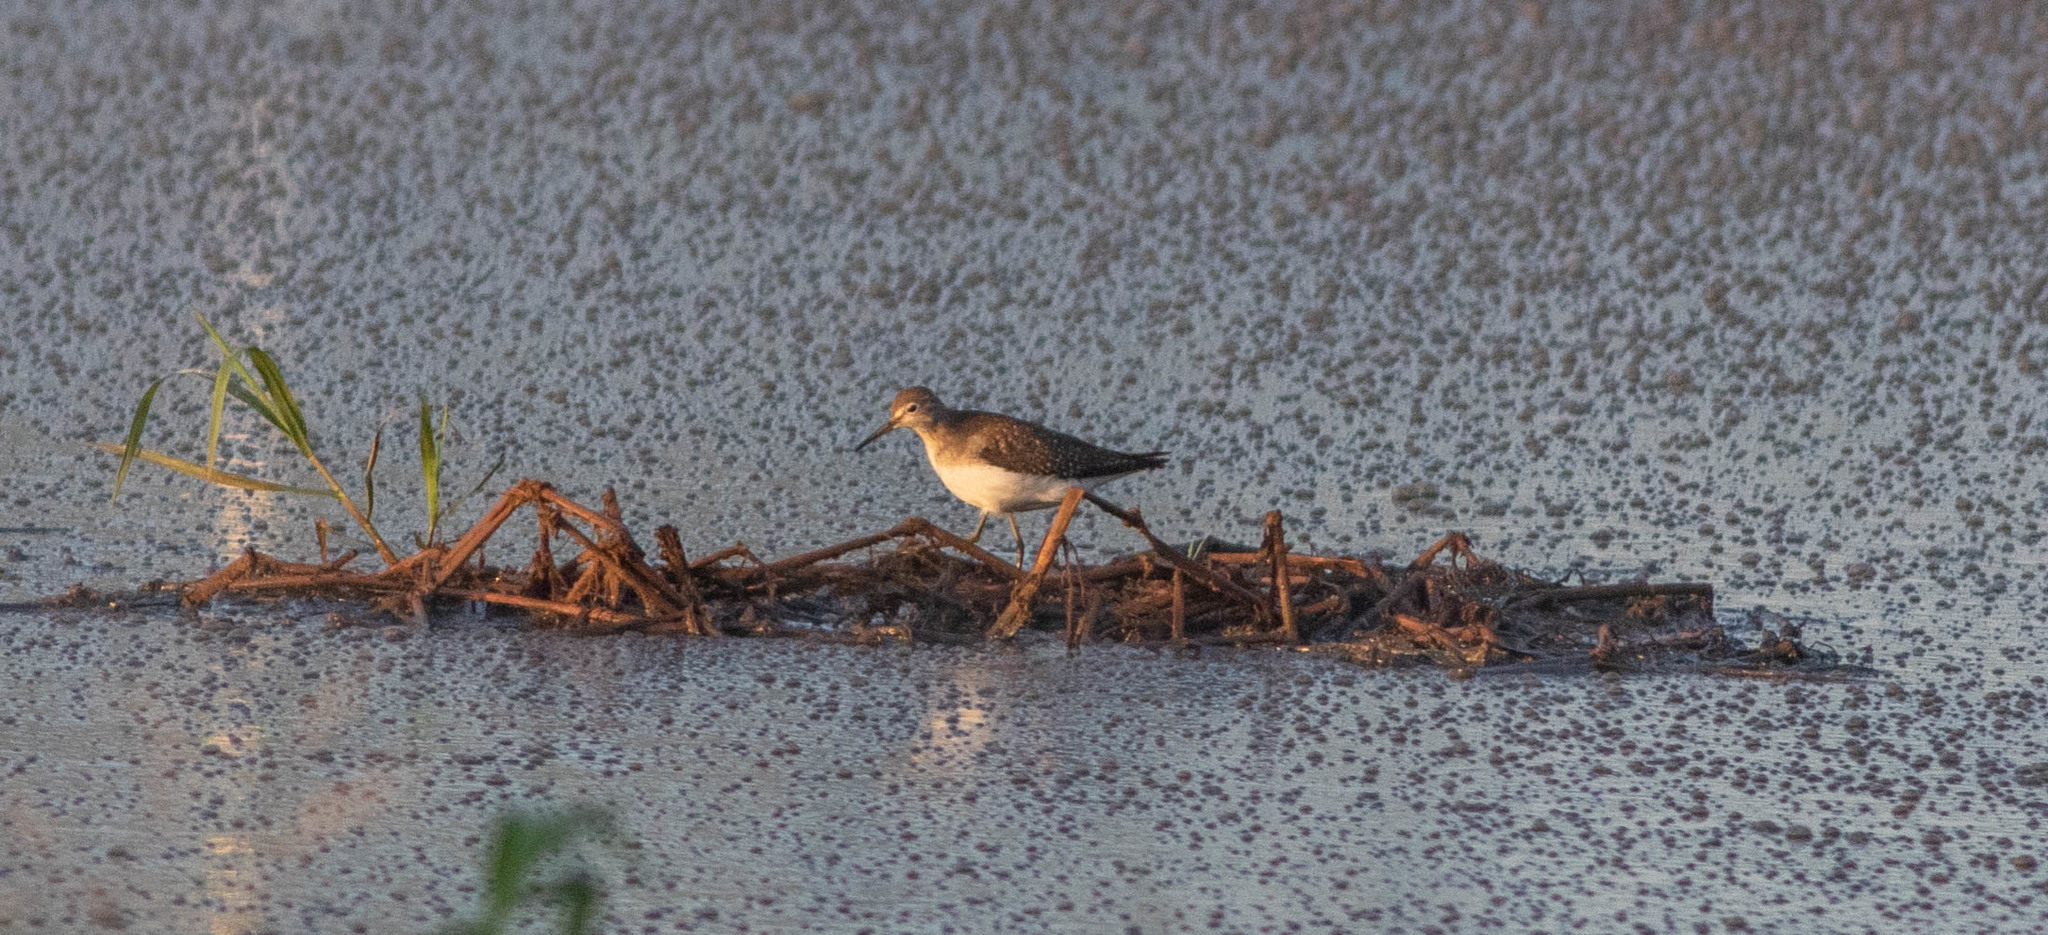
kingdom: Animalia
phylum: Chordata
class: Aves
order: Charadriiformes
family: Scolopacidae
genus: Tringa
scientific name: Tringa solitaria
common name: Solitary sandpiper
